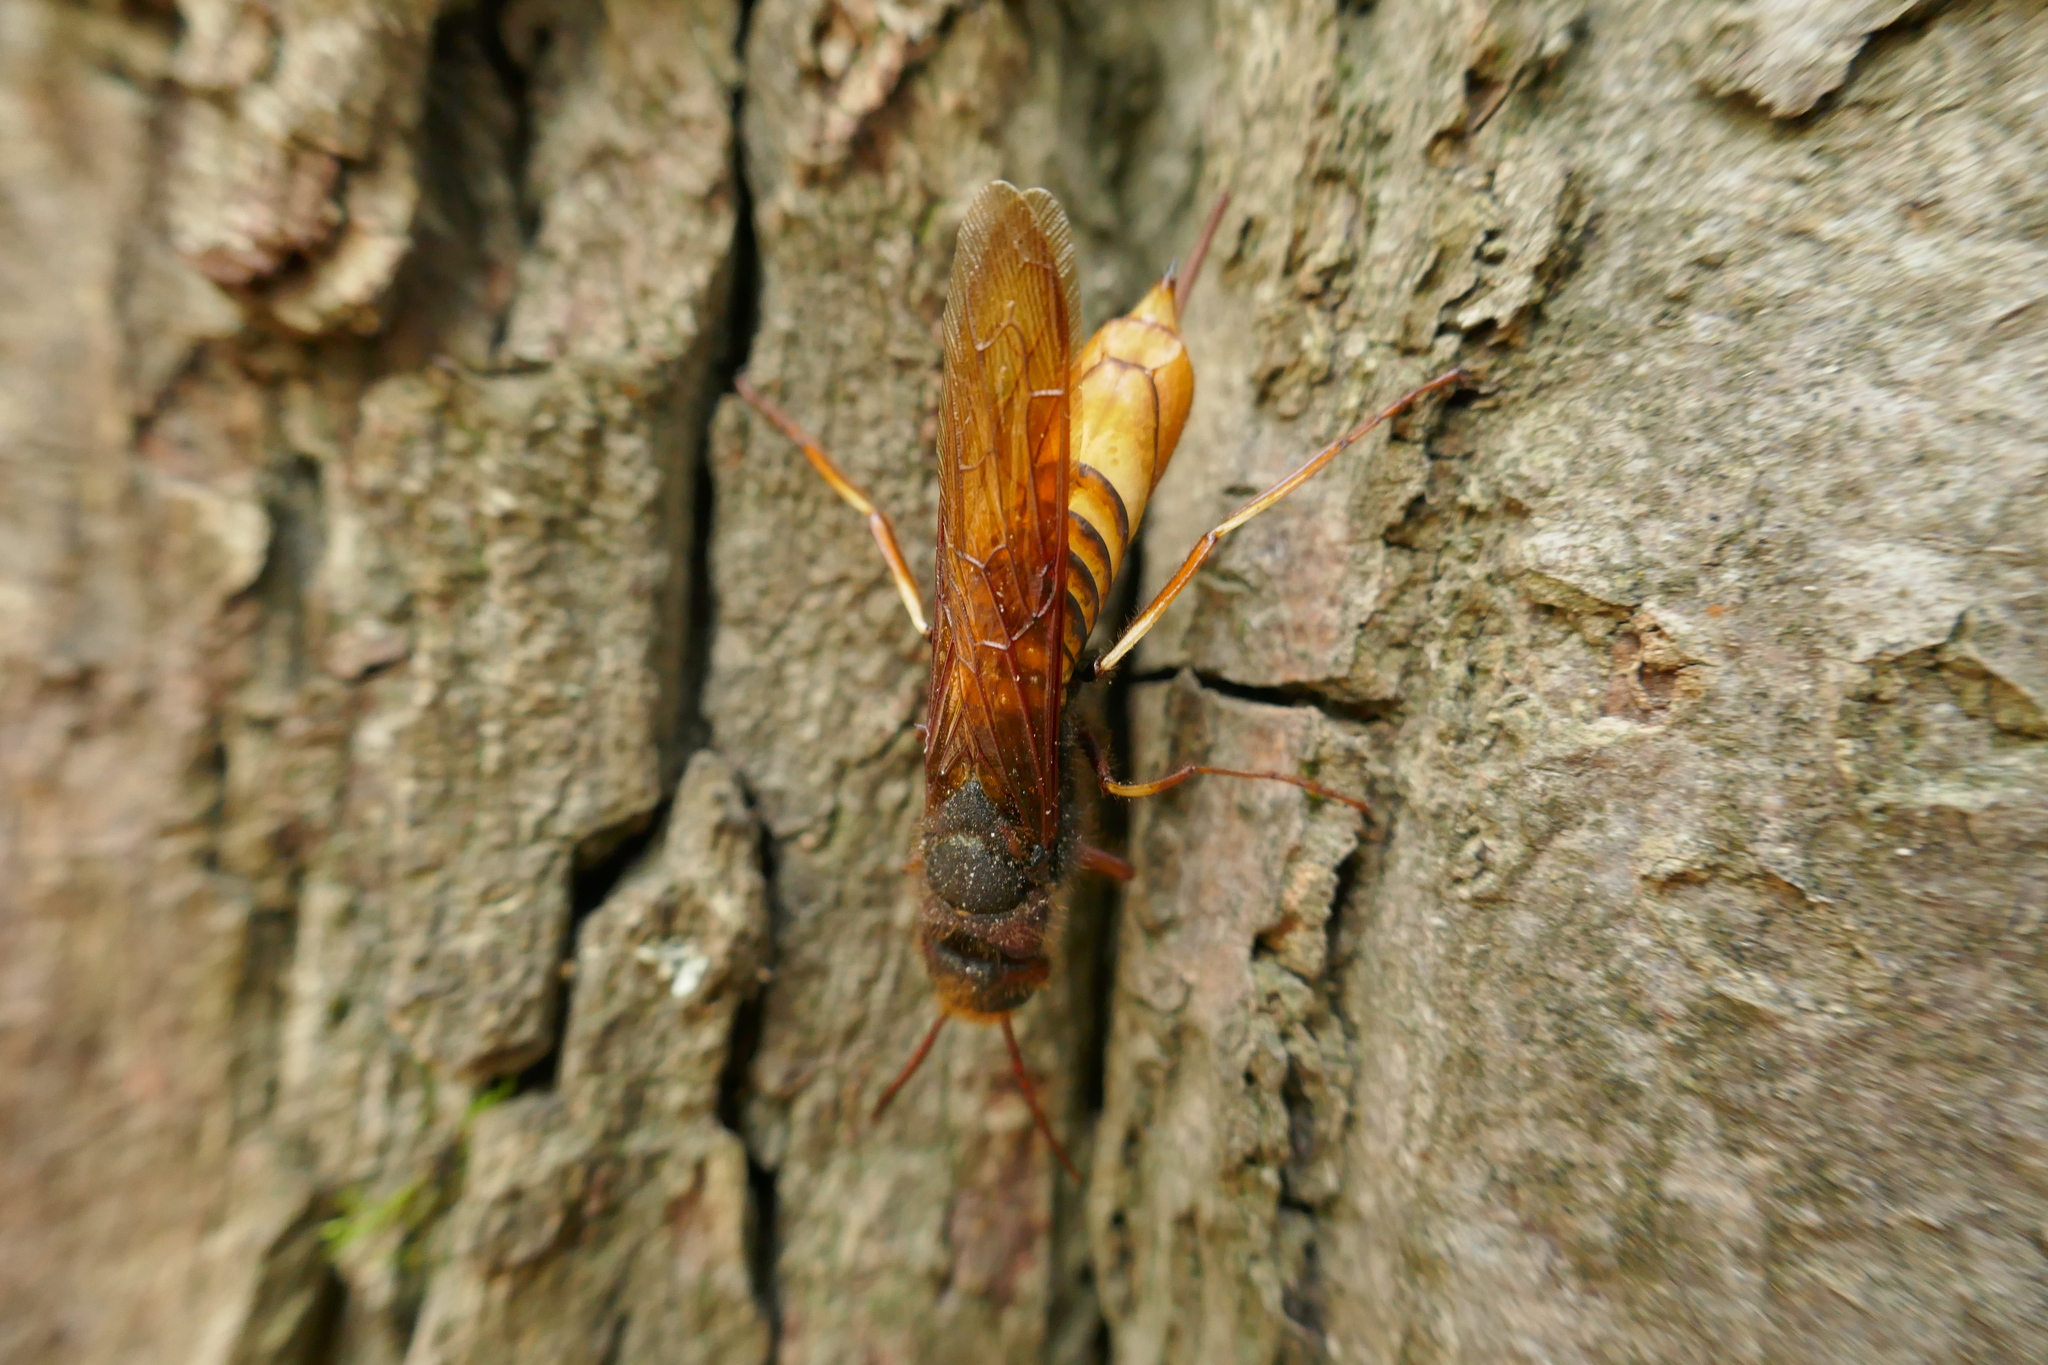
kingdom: Animalia
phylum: Arthropoda
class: Insecta
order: Hymenoptera
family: Siricidae
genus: Tremex
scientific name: Tremex fuscicornis
